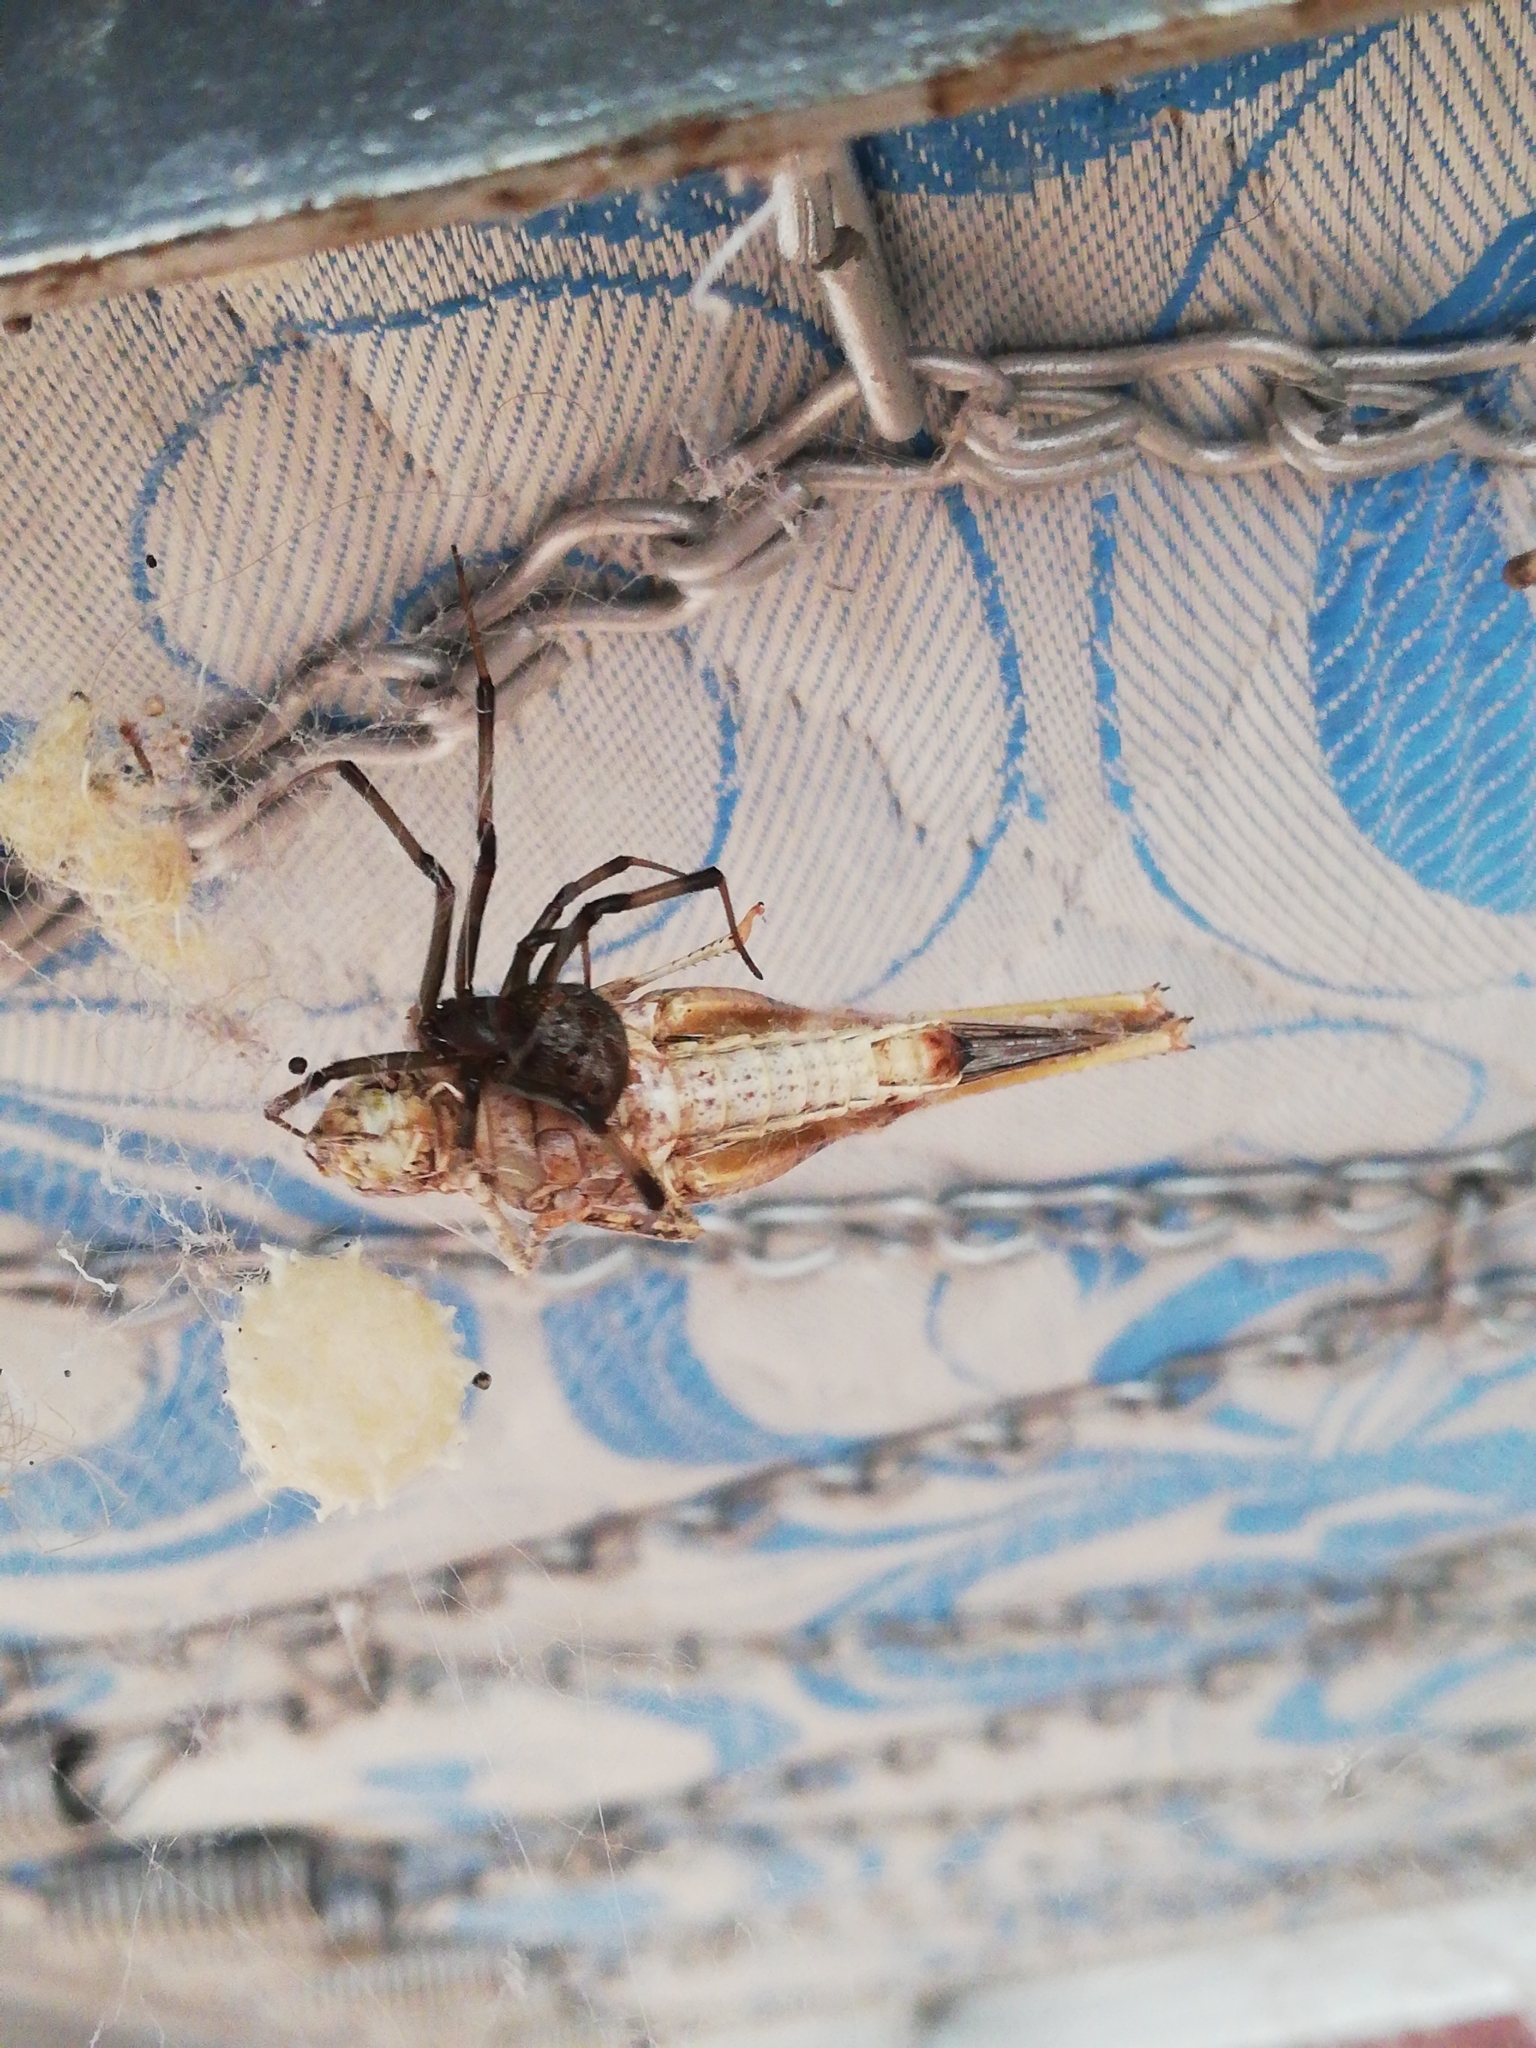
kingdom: Animalia
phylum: Arthropoda
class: Arachnida
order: Araneae
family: Theridiidae
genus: Latrodectus
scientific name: Latrodectus geometricus
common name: Brown widow spider
